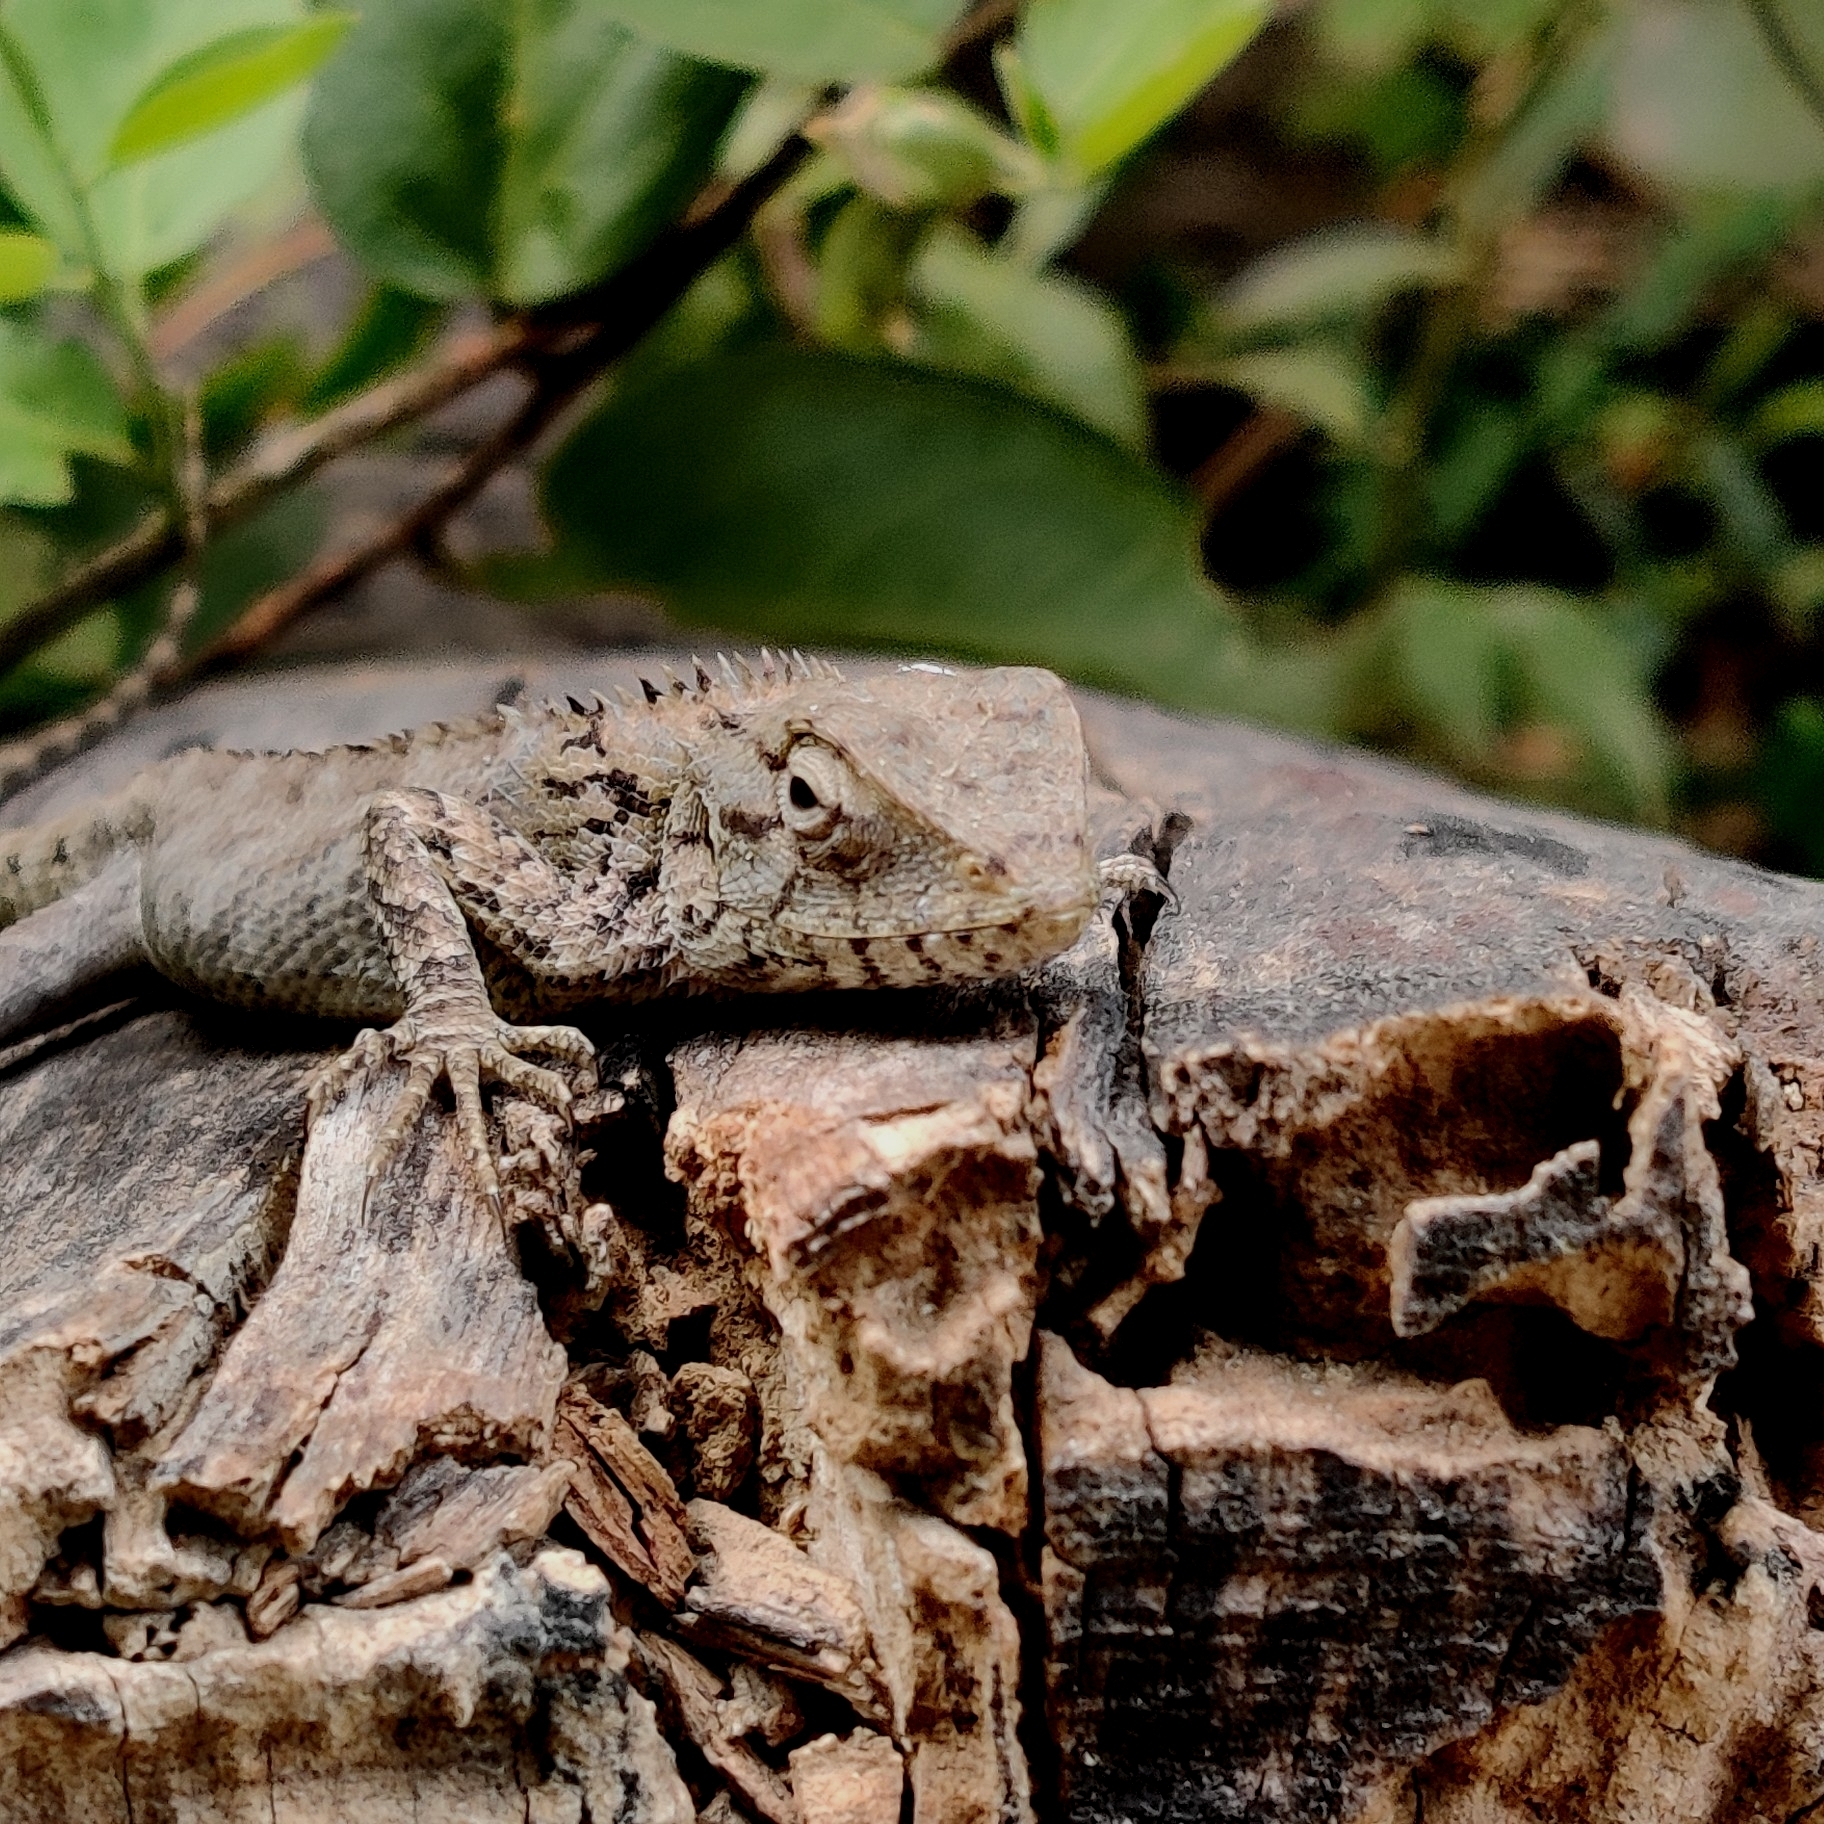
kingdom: Animalia
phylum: Chordata
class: Squamata
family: Agamidae
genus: Calotes
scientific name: Calotes versicolor
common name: Oriental garden lizard
